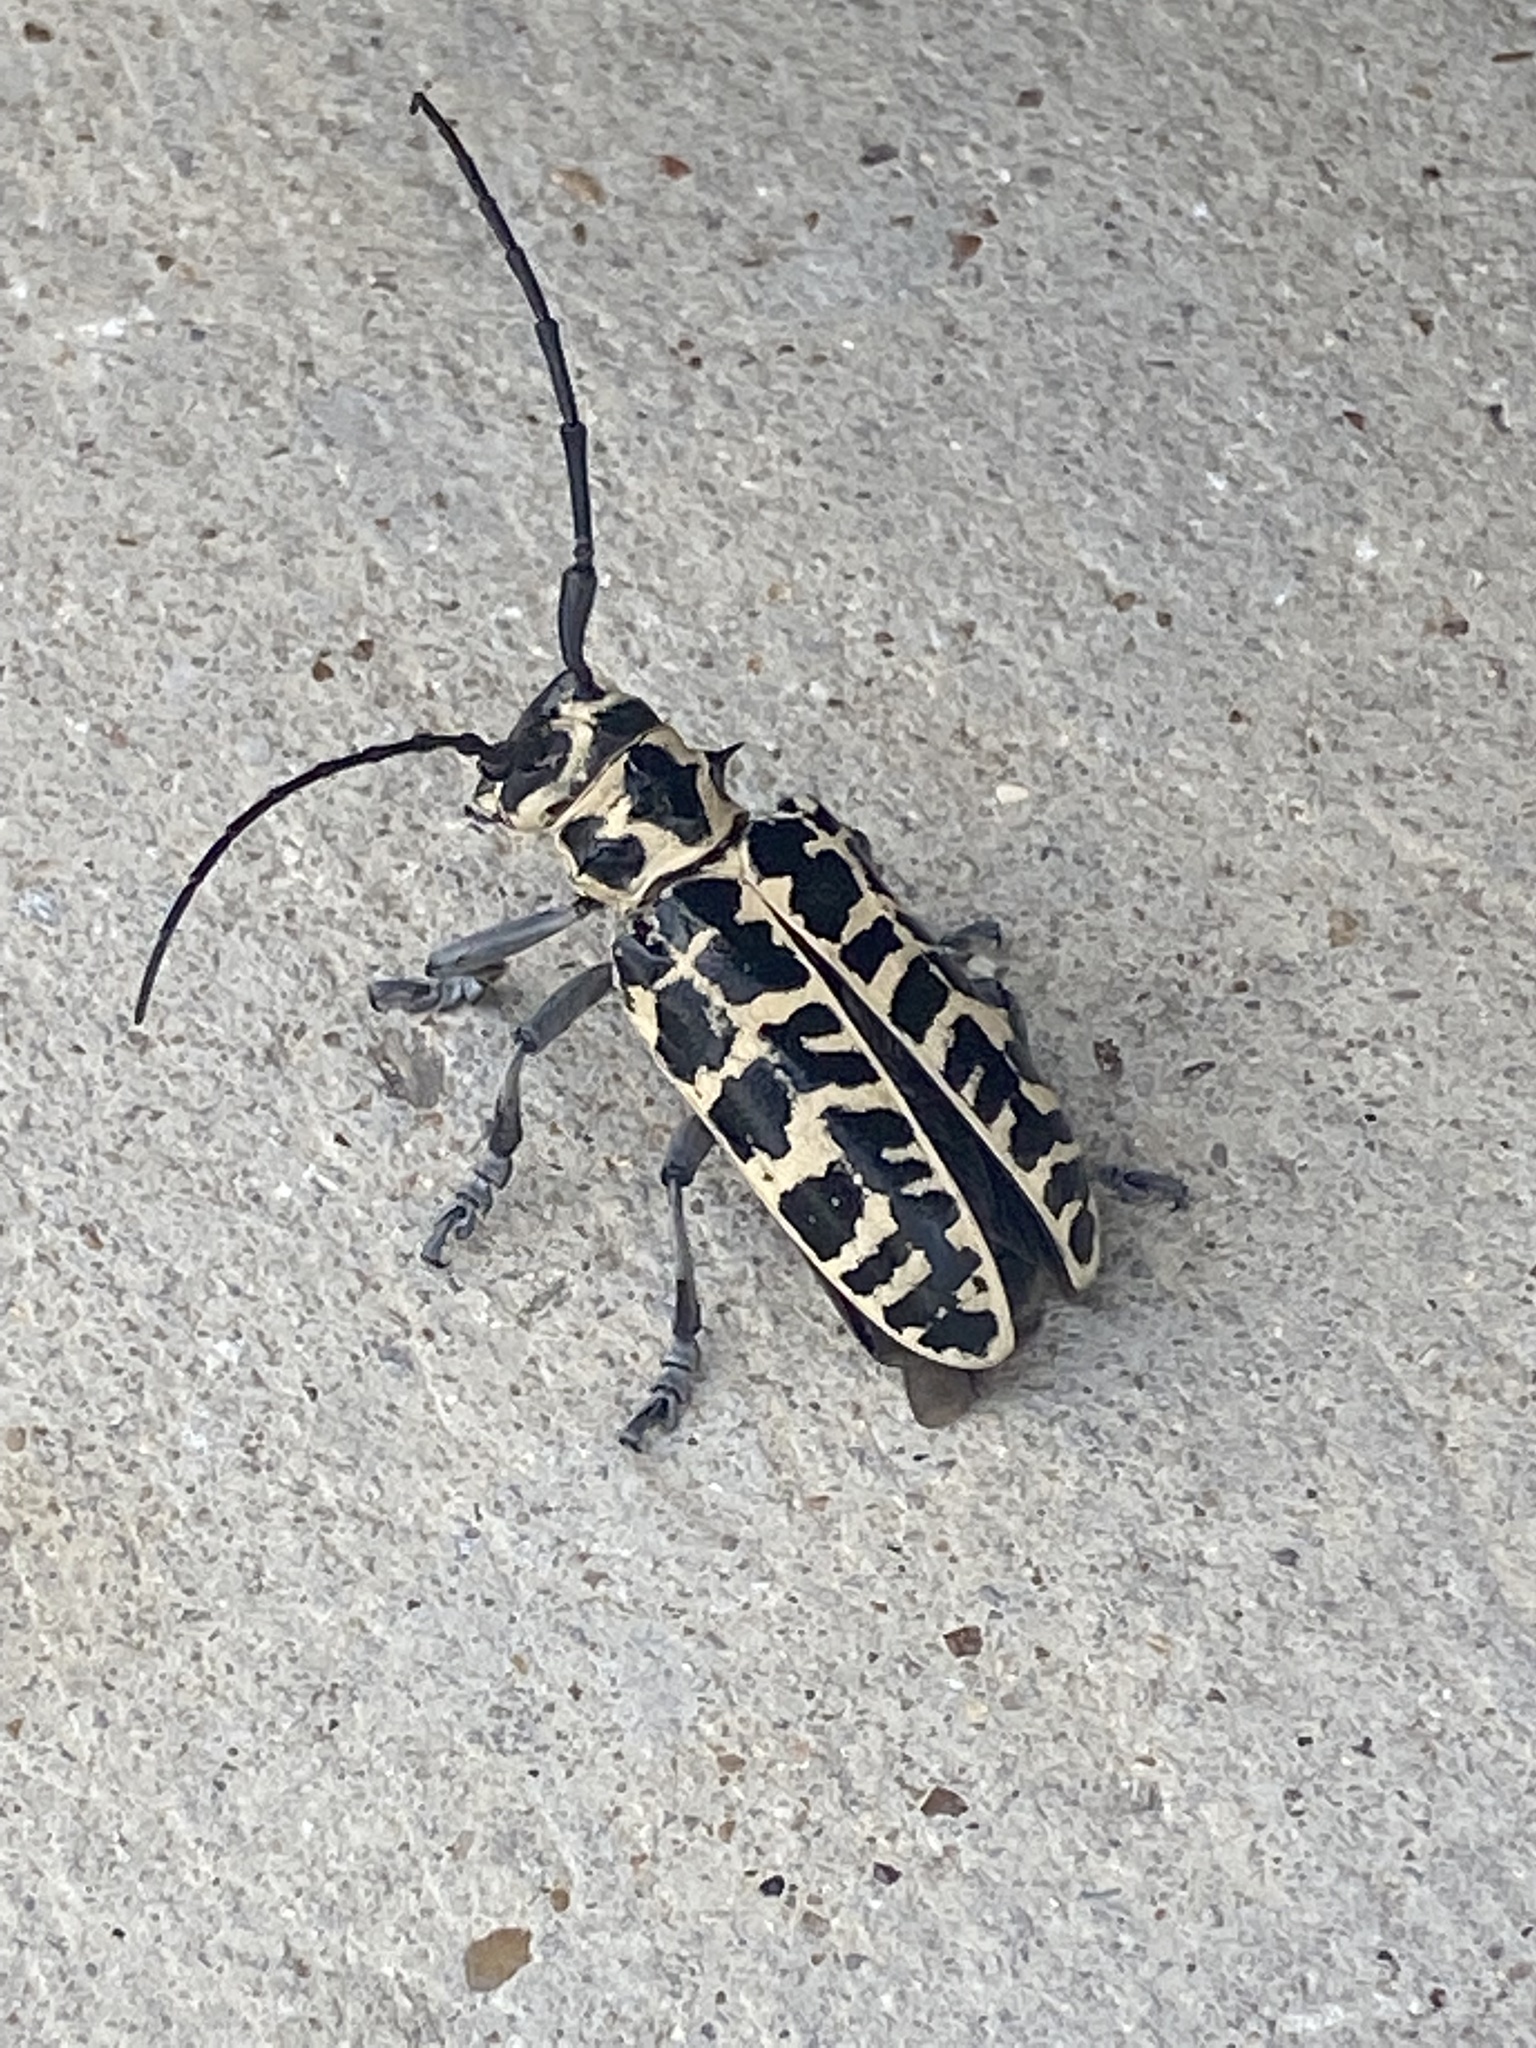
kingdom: Animalia
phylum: Arthropoda
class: Insecta
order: Coleoptera
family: Cerambycidae
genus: Plectrodera
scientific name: Plectrodera scalator
